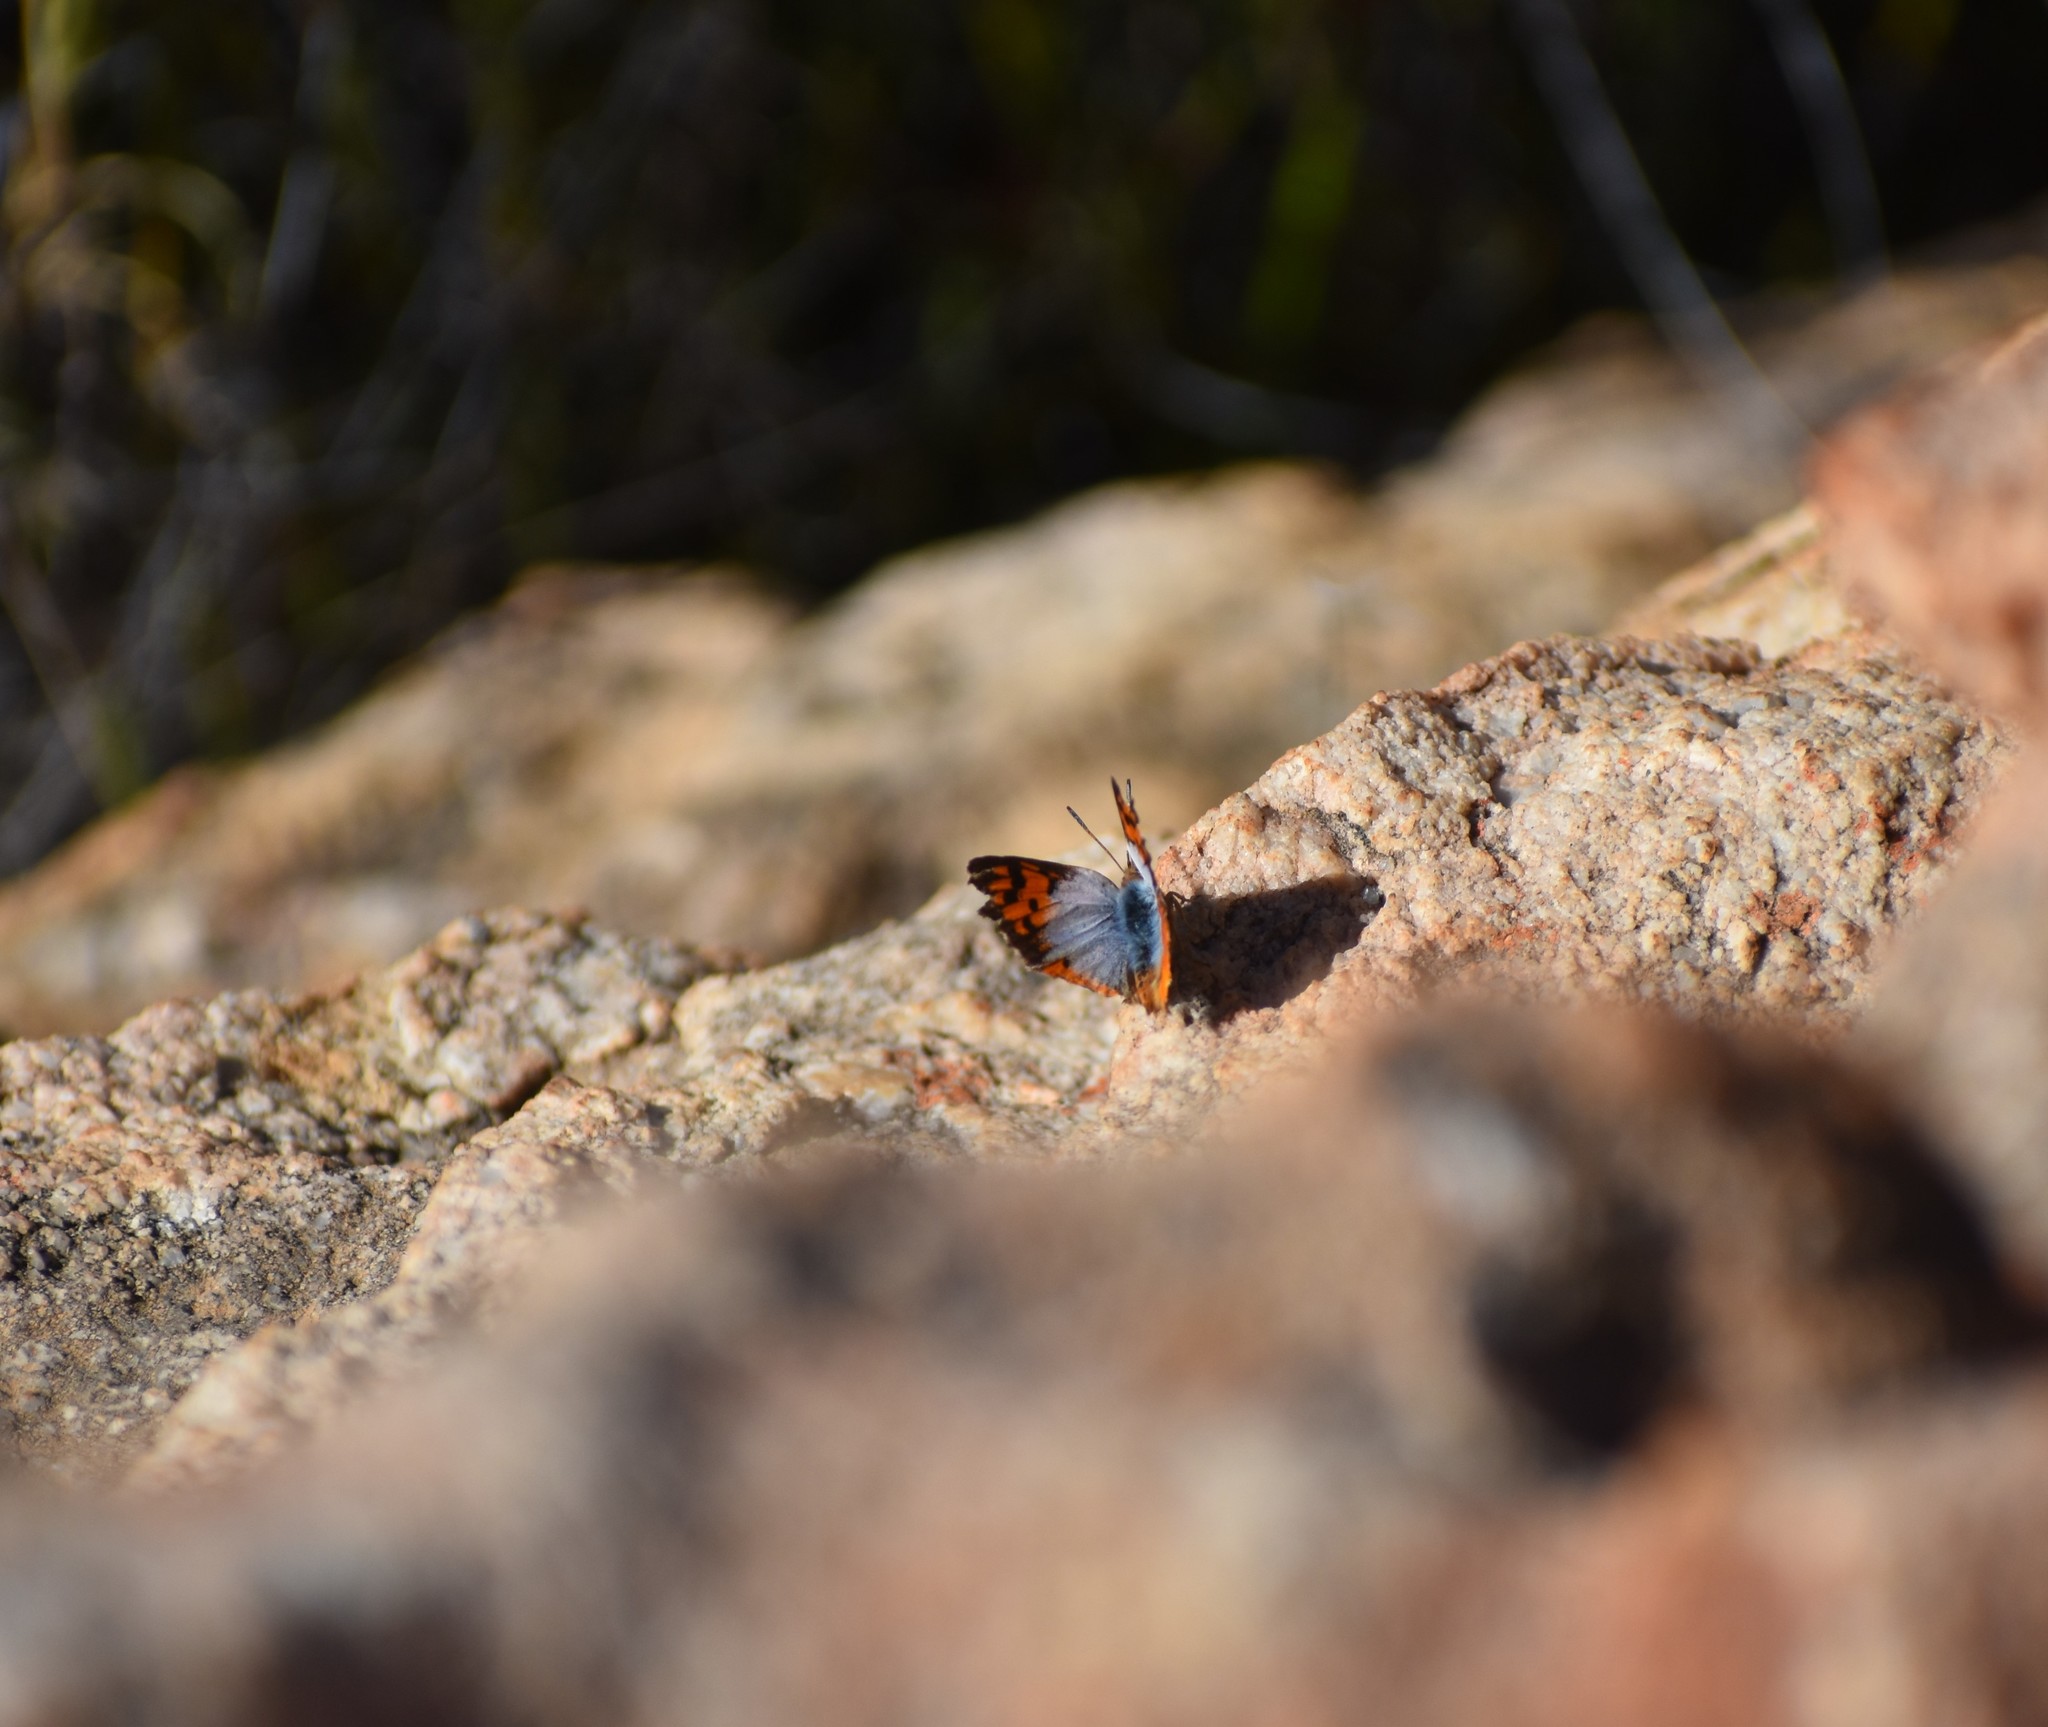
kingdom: Animalia
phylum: Arthropoda
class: Insecta
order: Lepidoptera
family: Lycaenidae
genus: Poecilmitis
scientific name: Poecilmitis plutus
